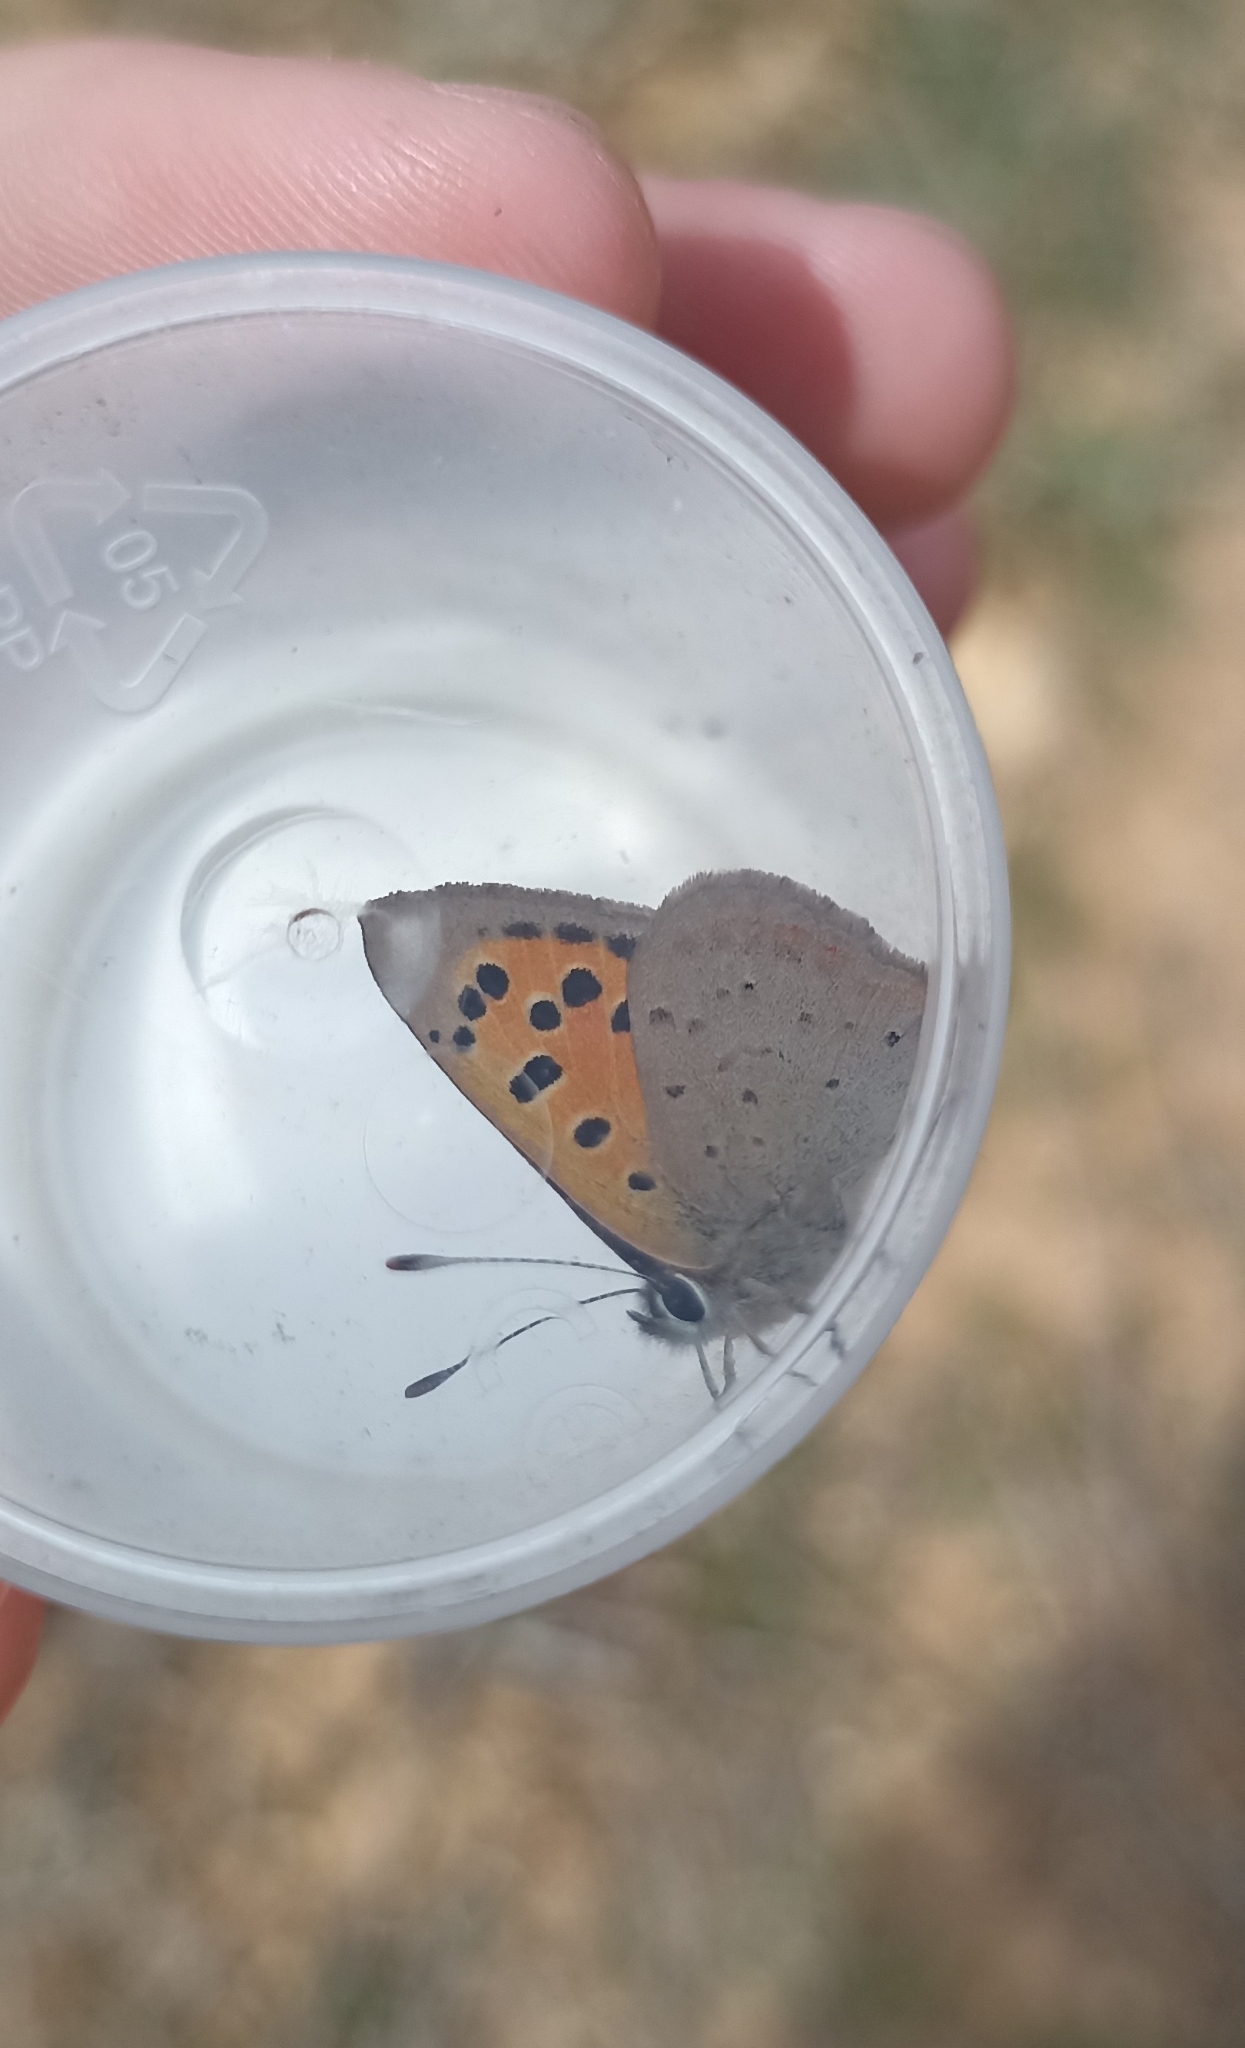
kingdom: Animalia
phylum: Arthropoda
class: Insecta
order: Lepidoptera
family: Lycaenidae
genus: Lycaena
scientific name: Lycaena phlaeas
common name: Small copper
